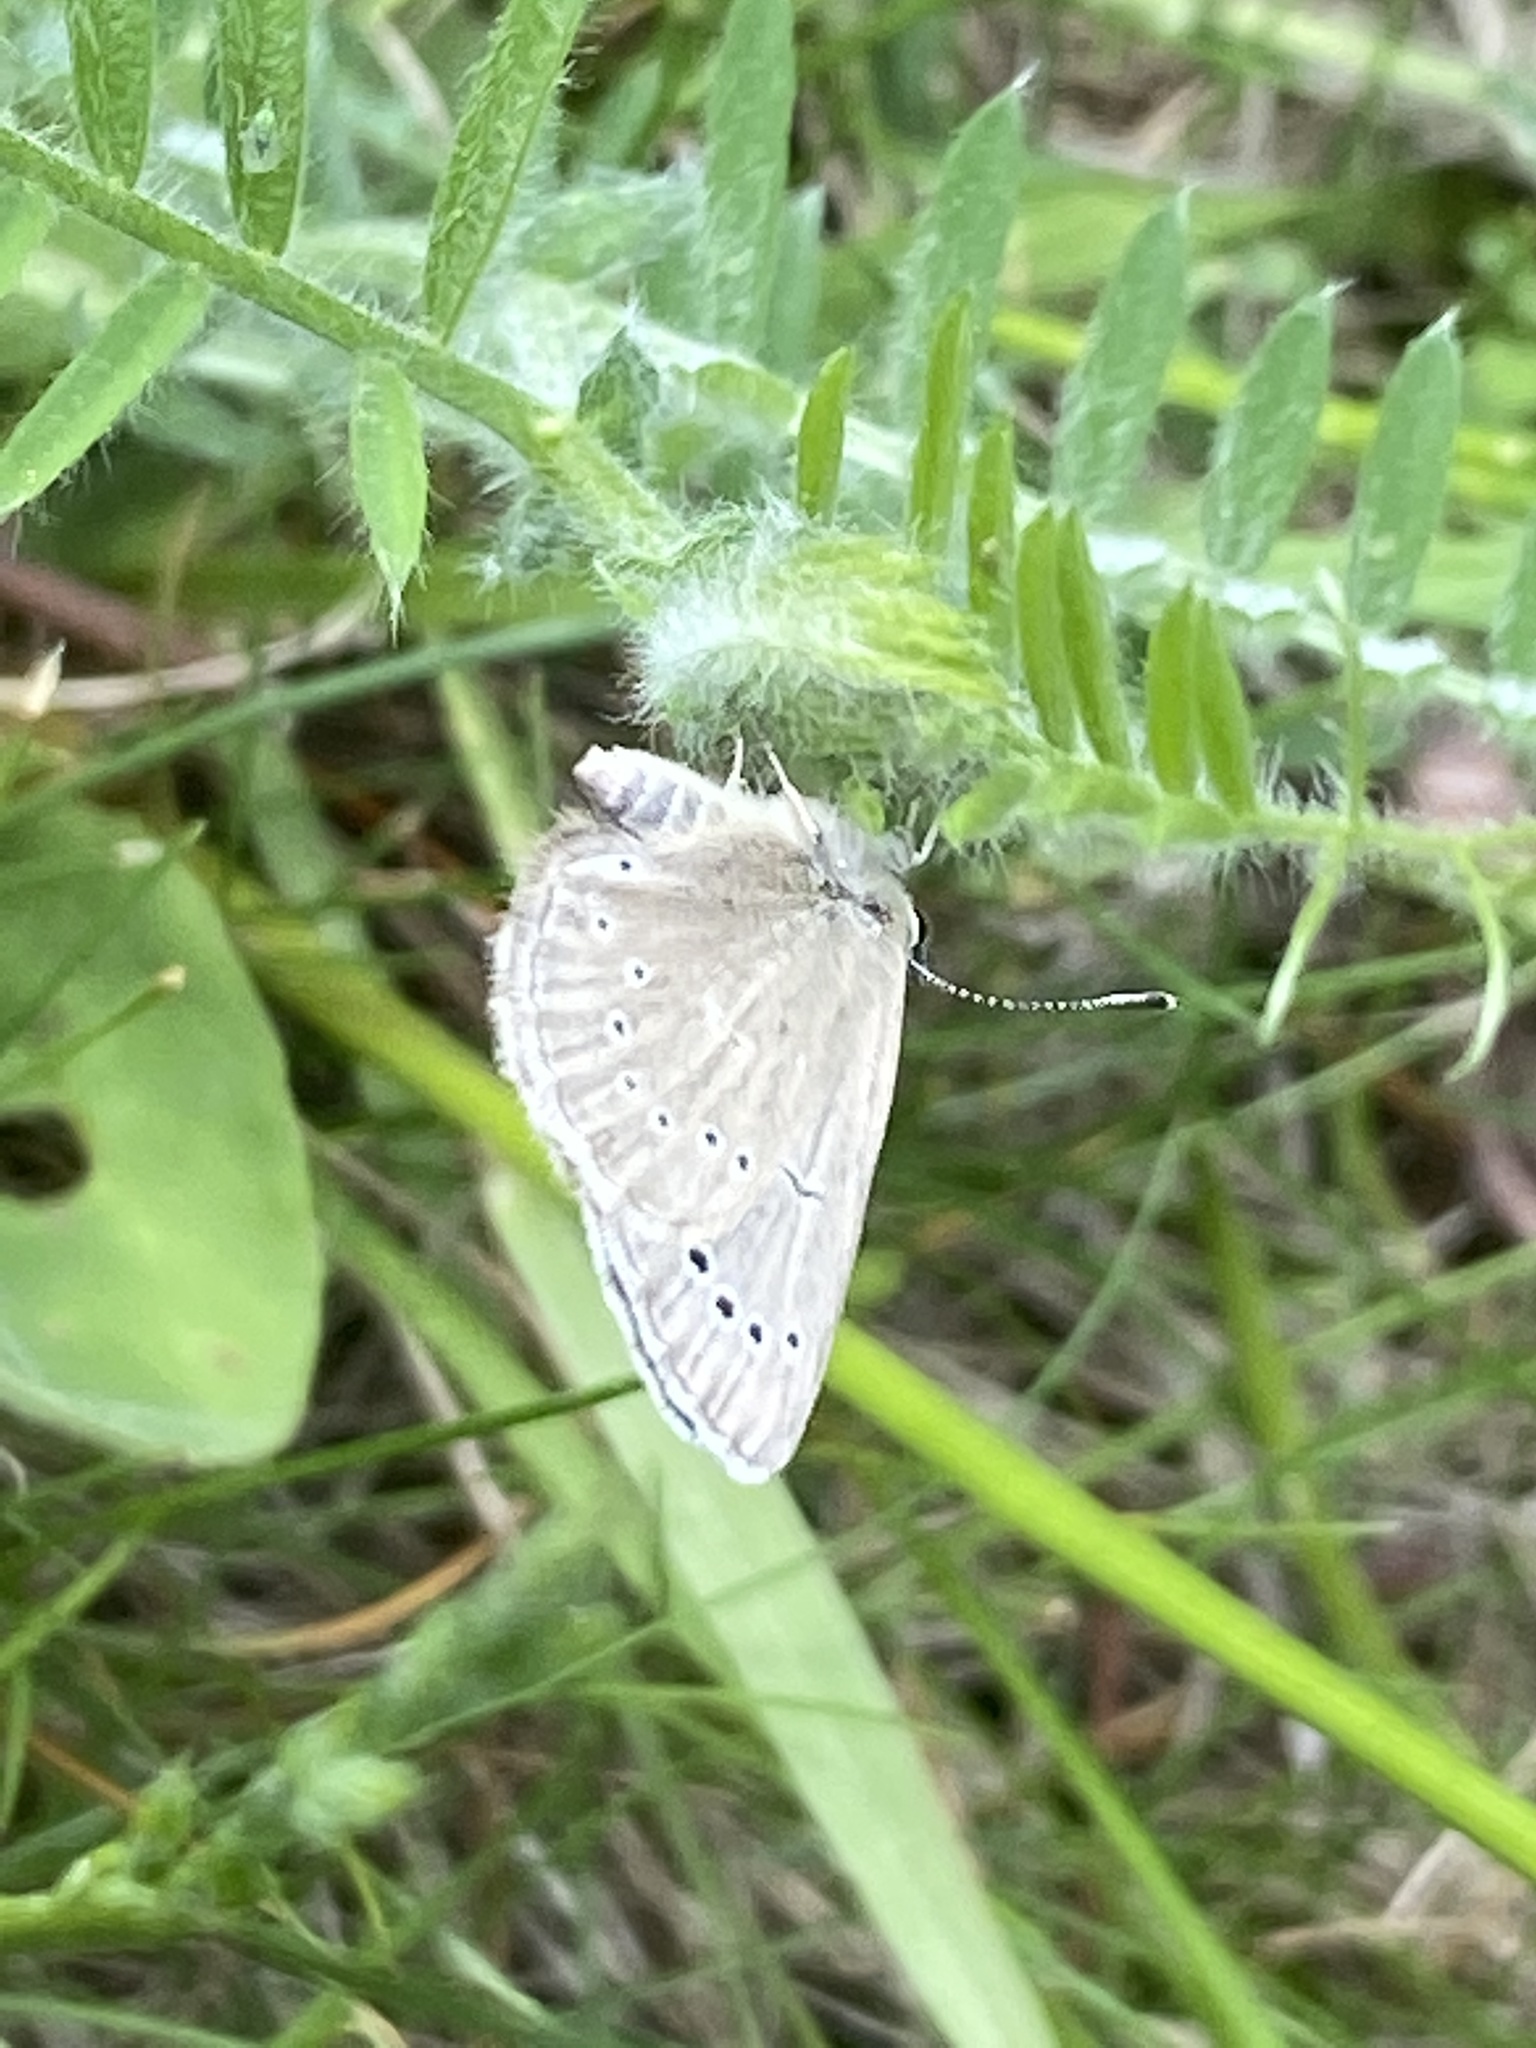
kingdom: Animalia
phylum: Arthropoda
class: Insecta
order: Lepidoptera
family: Lycaenidae
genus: Glaucopsyche
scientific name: Glaucopsyche lygdamus
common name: Silvery blue
